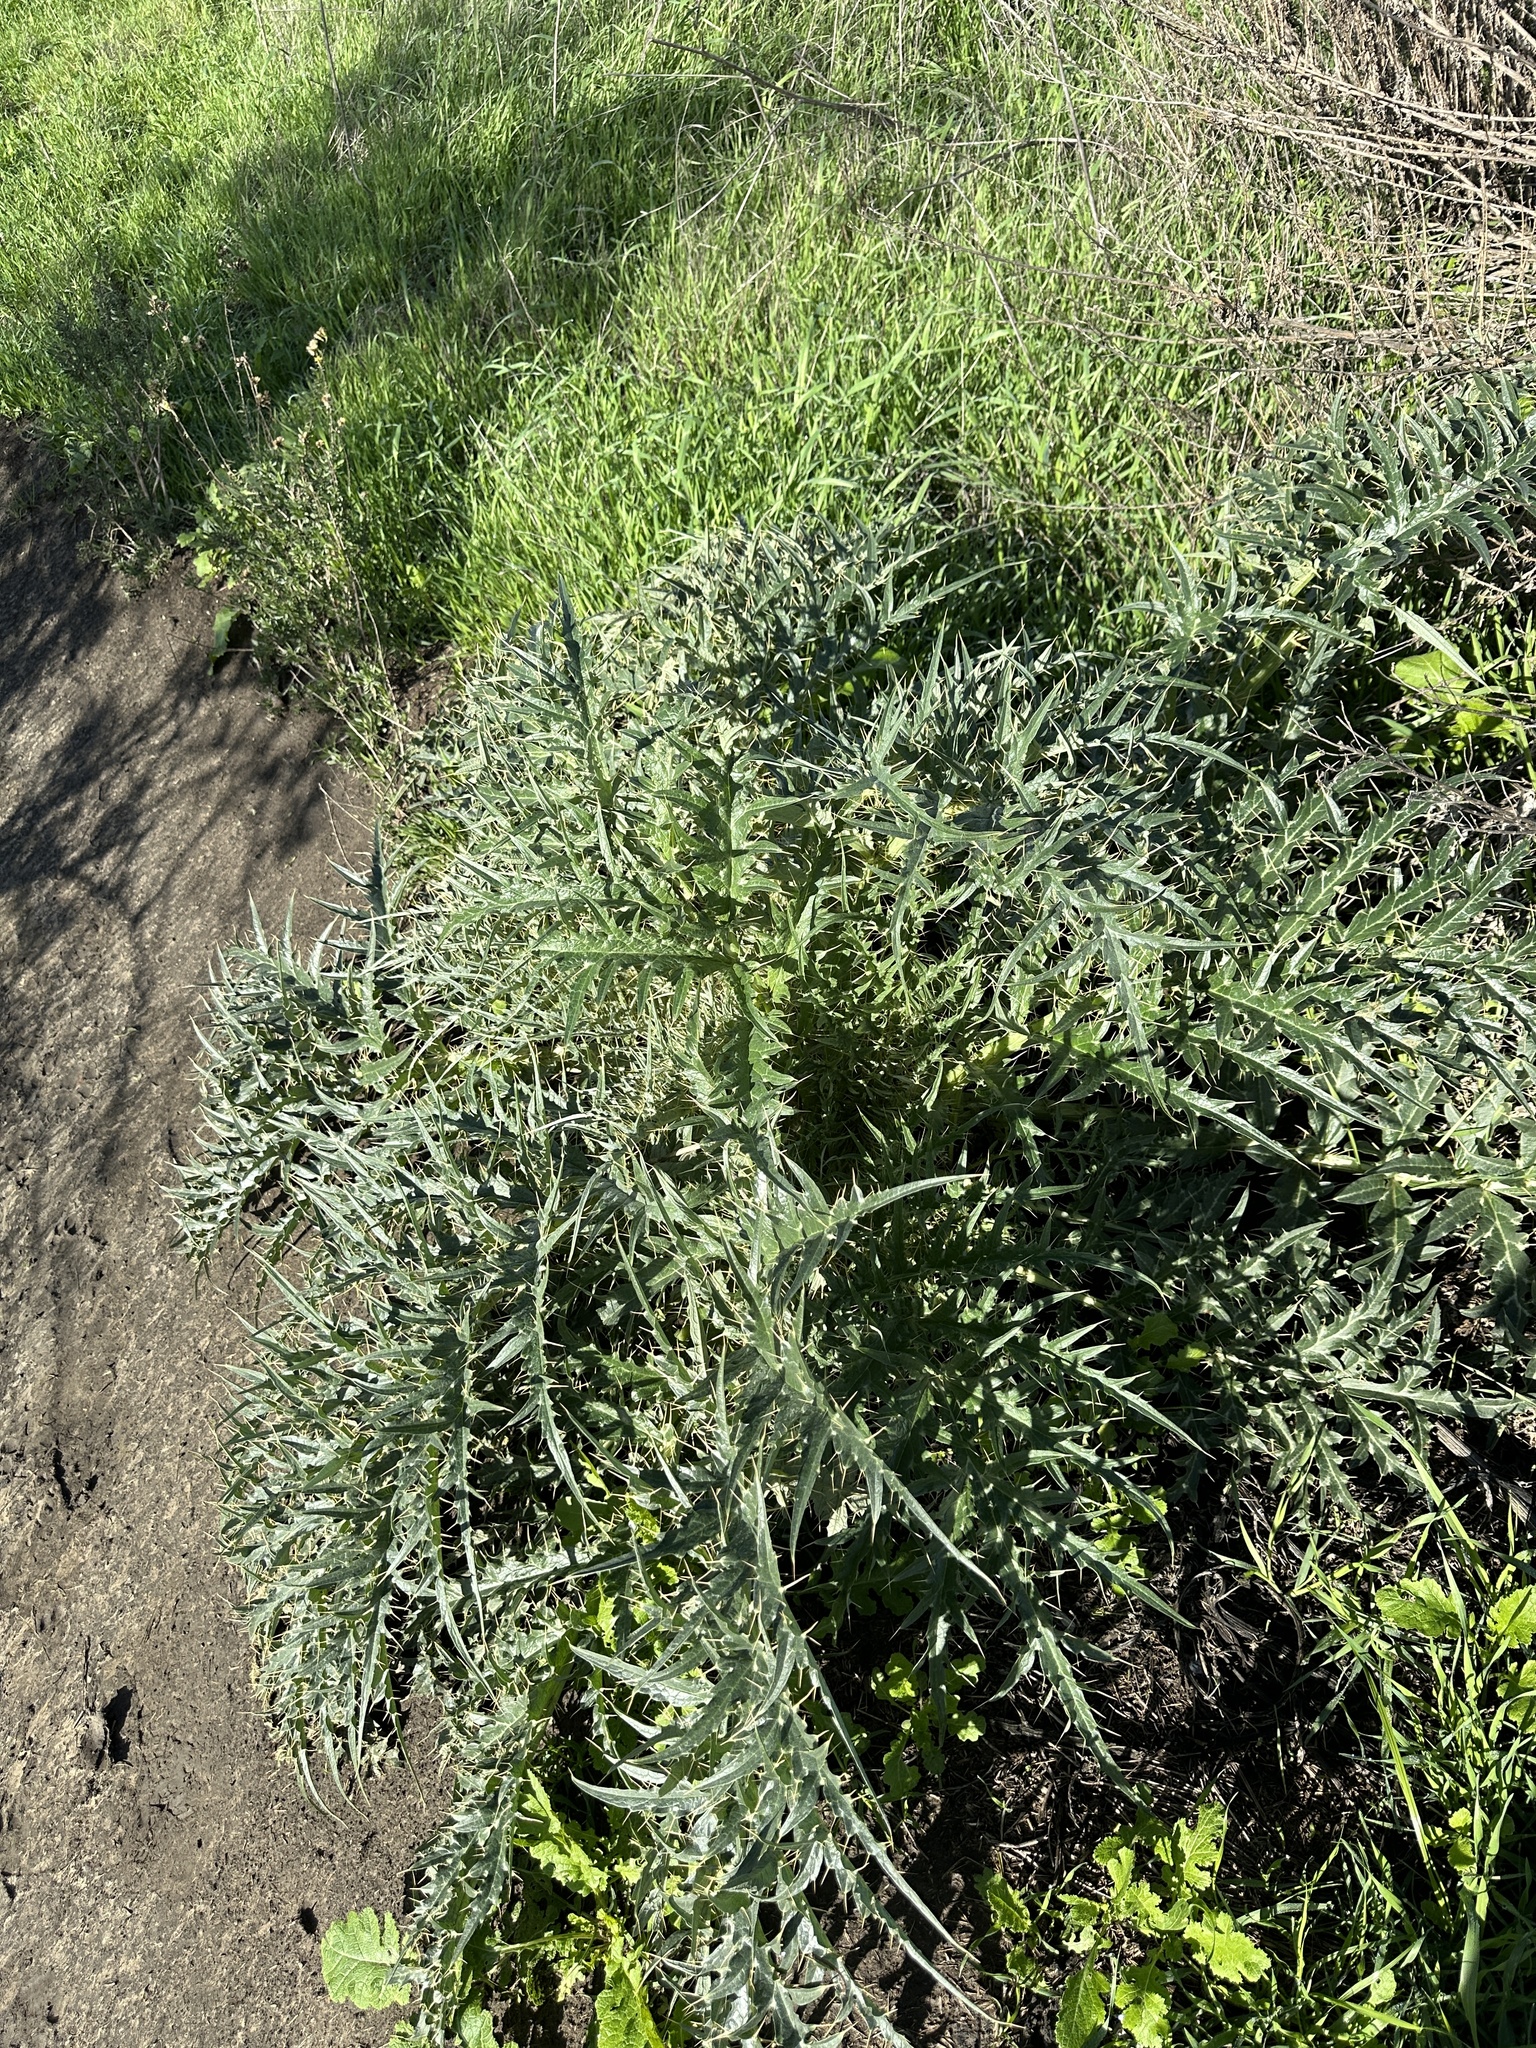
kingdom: Plantae
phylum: Tracheophyta
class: Magnoliopsida
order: Asterales
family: Asteraceae
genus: Cynara
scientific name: Cynara cardunculus
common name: Globe artichoke
